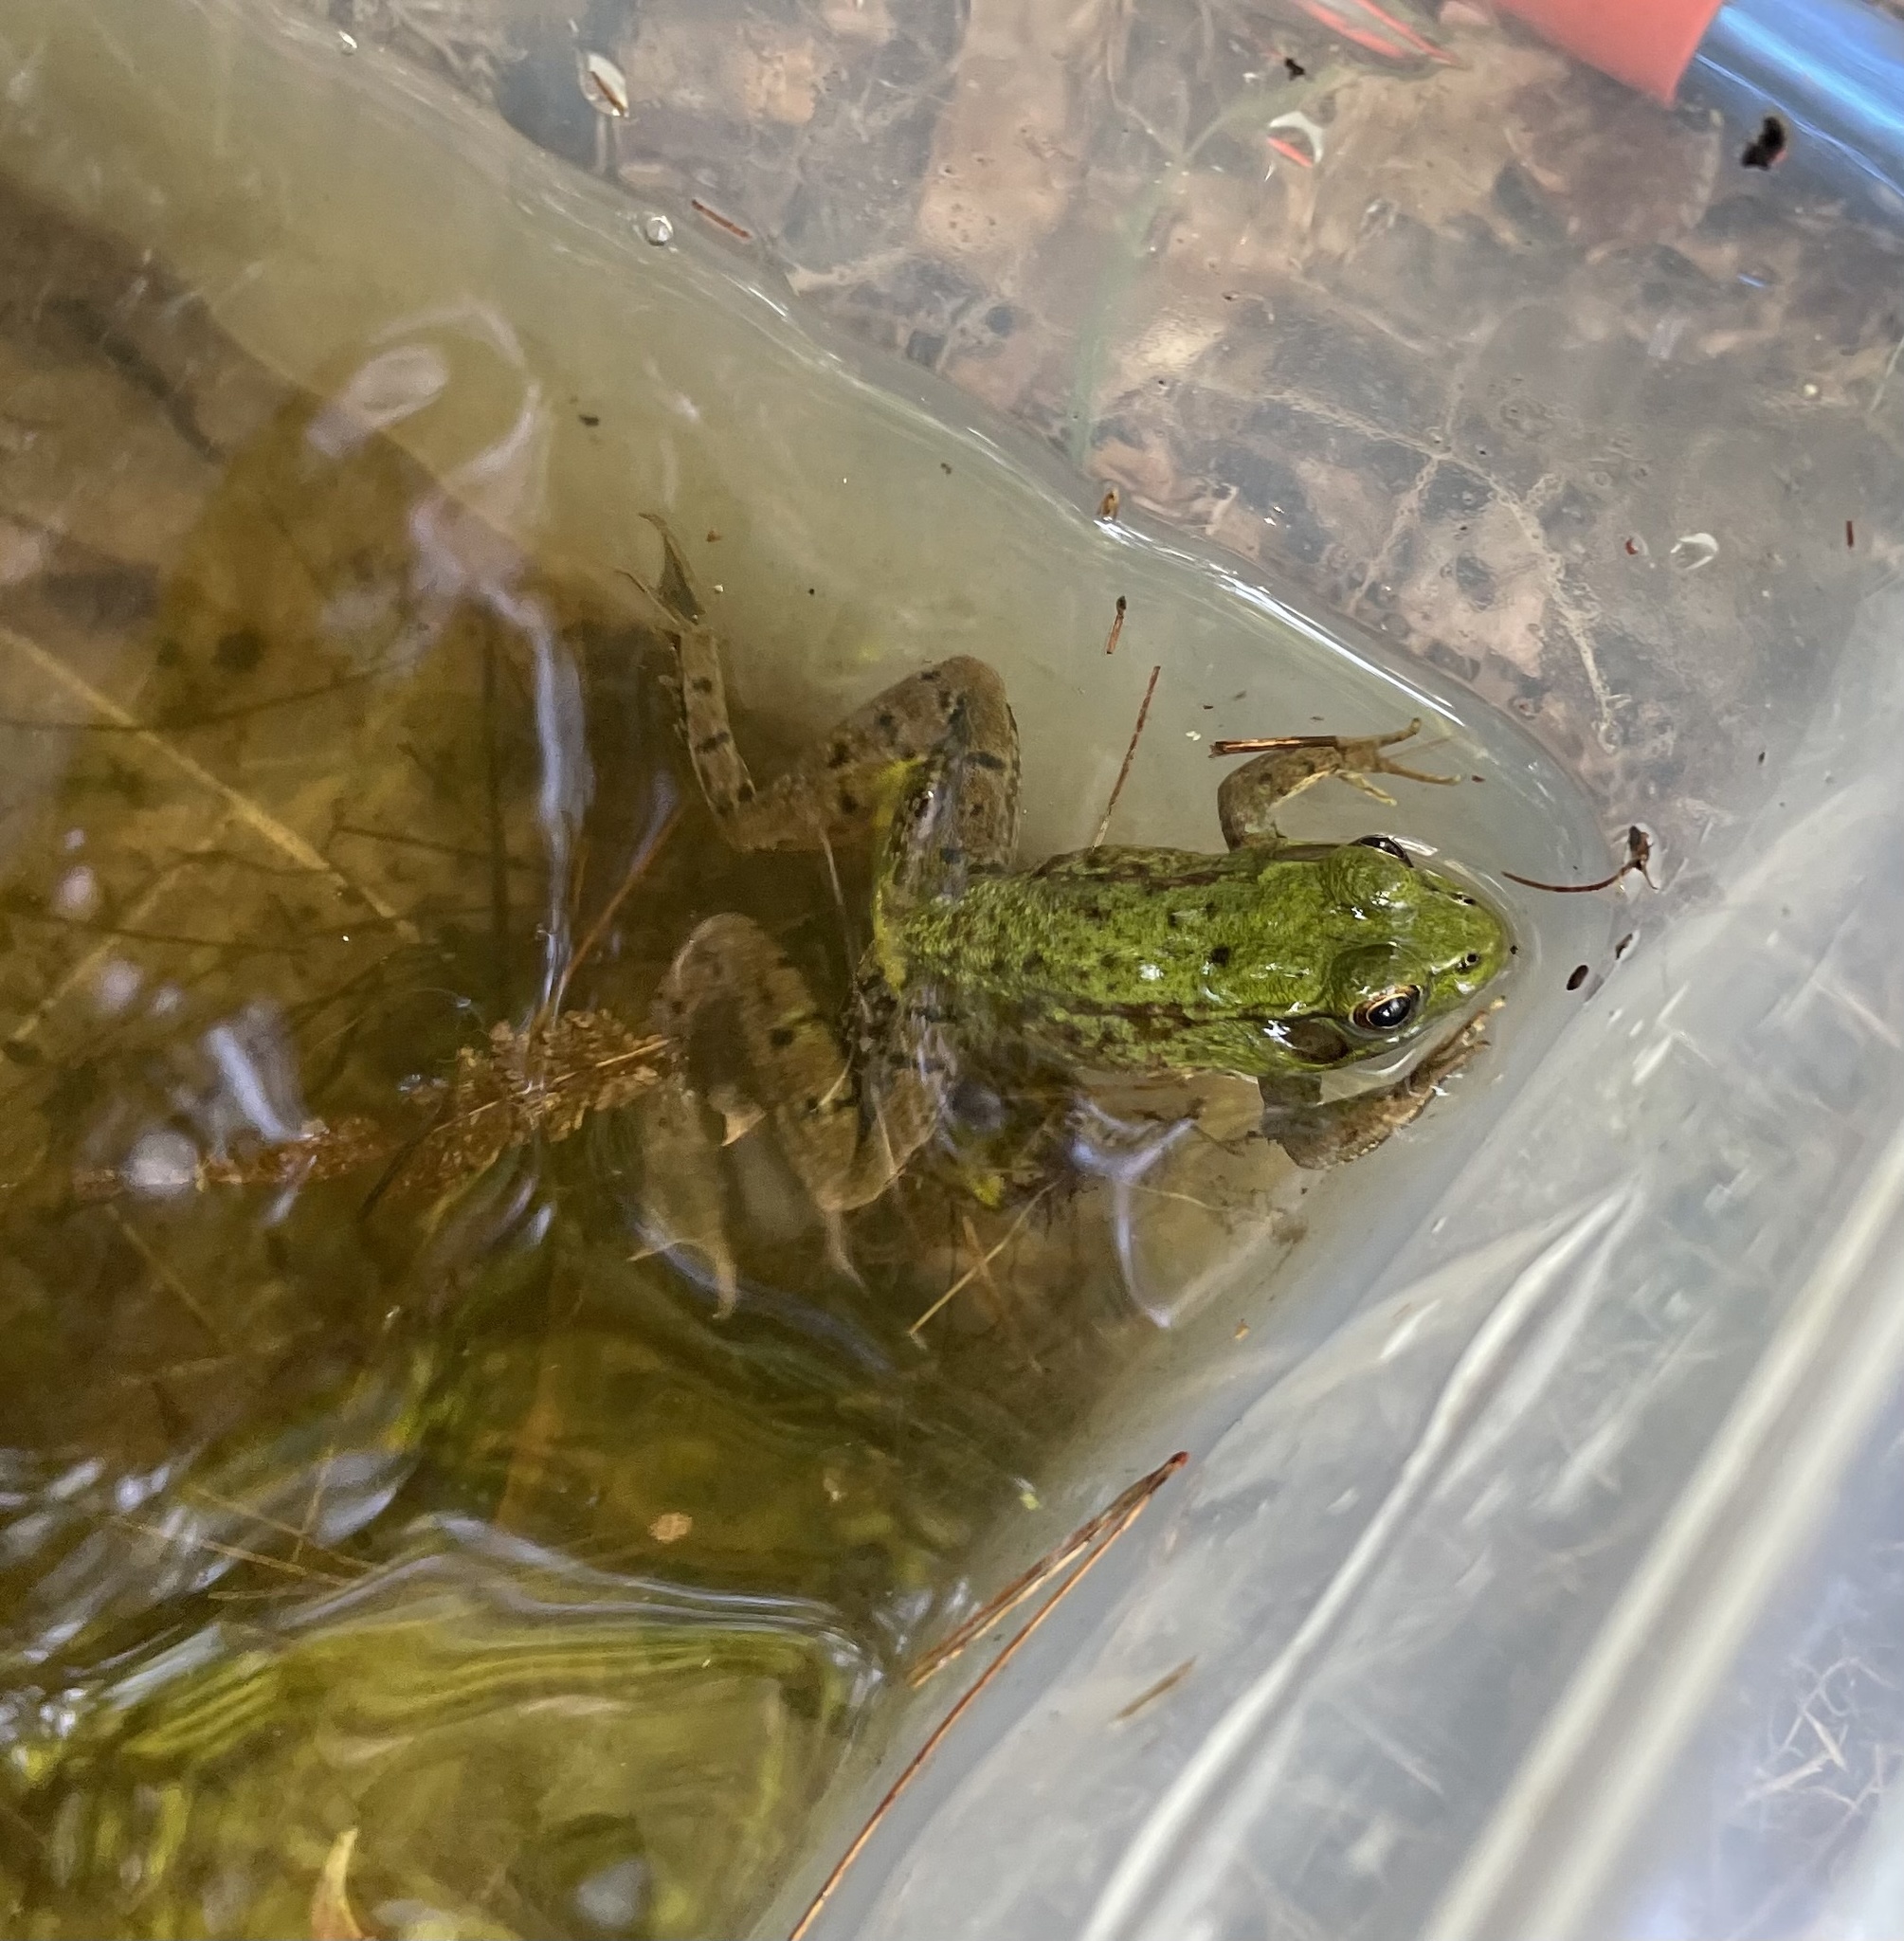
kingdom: Animalia
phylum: Chordata
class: Amphibia
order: Anura
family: Ranidae
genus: Lithobates
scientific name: Lithobates clamitans
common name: Green frog
